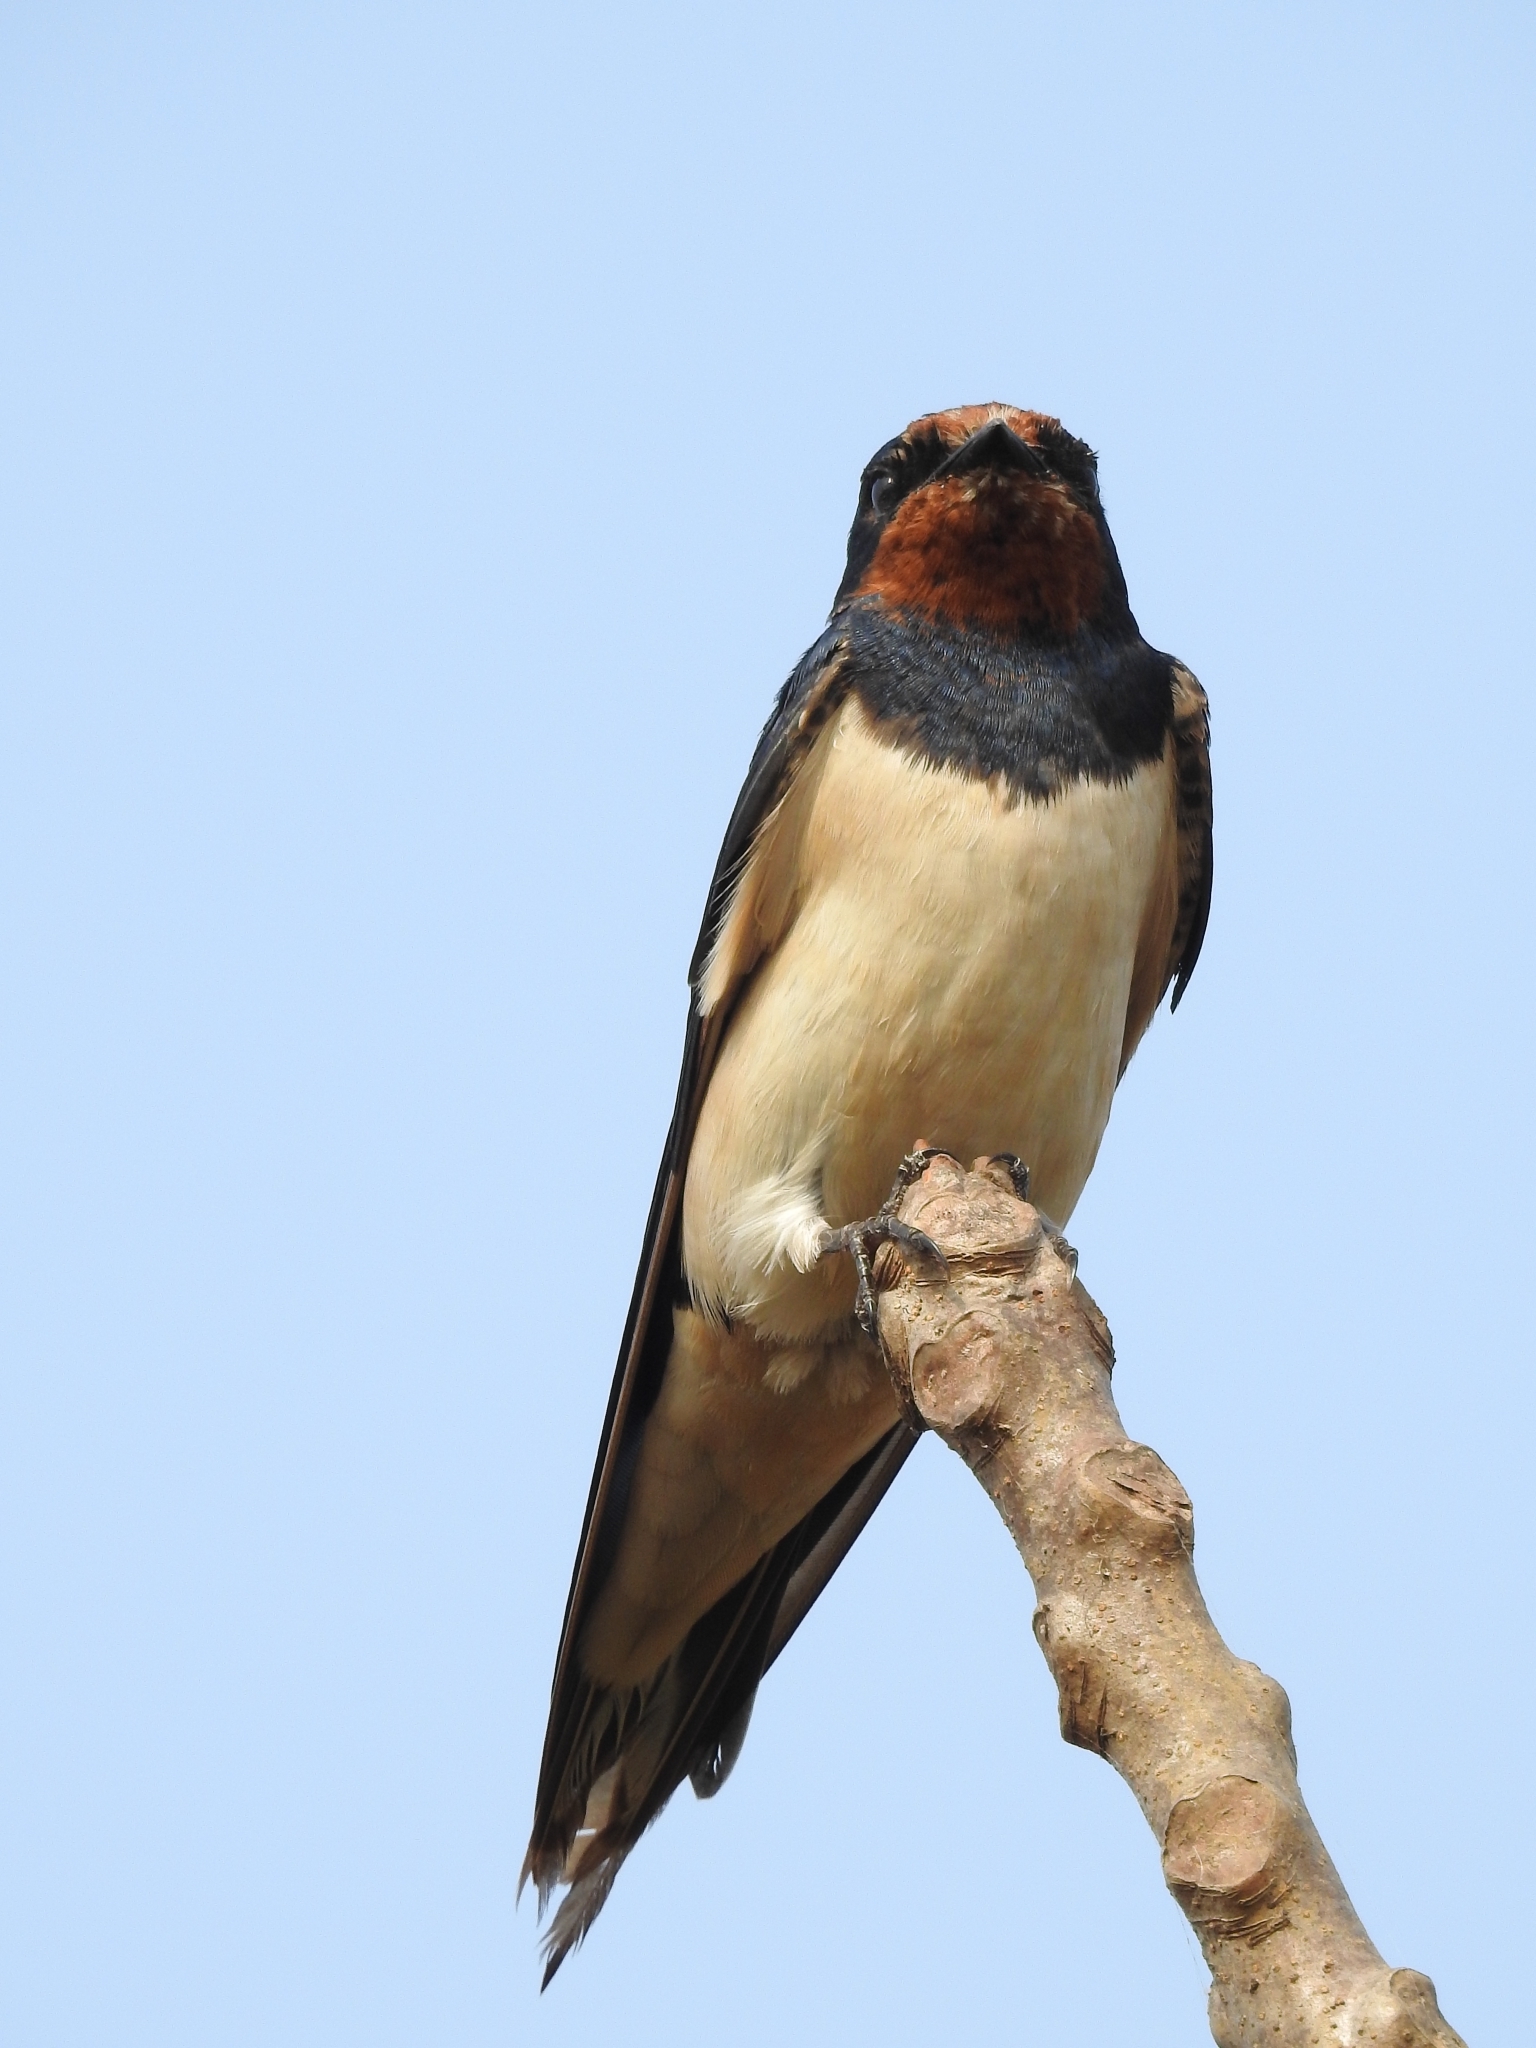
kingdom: Animalia
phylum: Chordata
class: Aves
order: Passeriformes
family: Hirundinidae
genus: Hirundo
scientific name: Hirundo rustica
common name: Barn swallow
